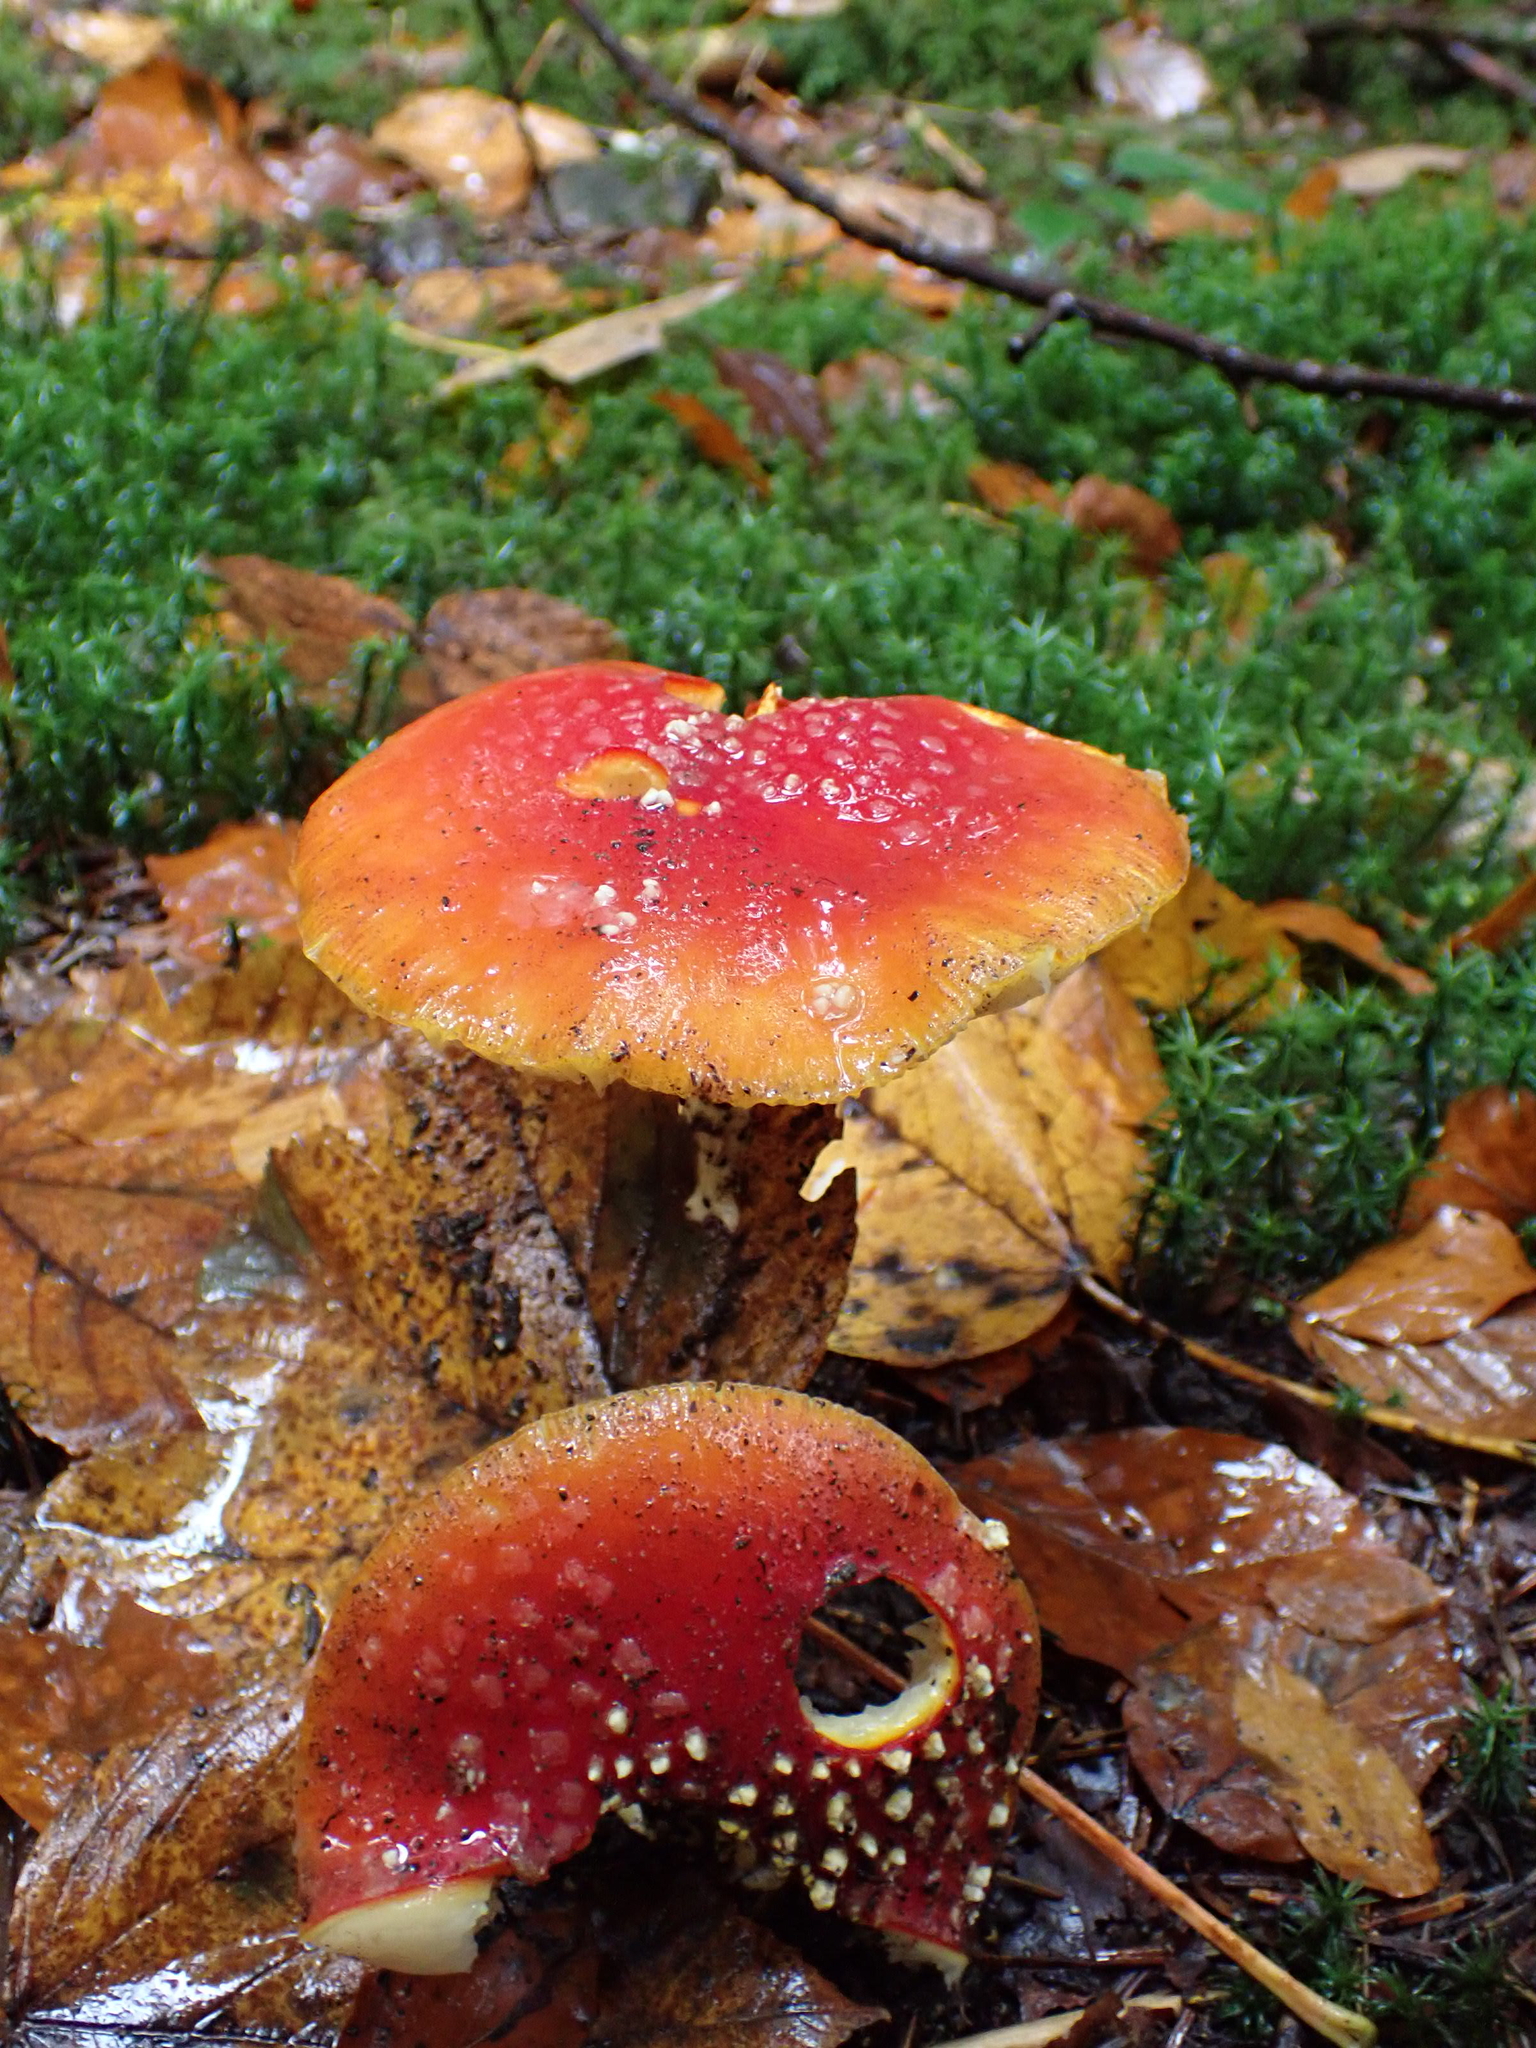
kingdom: Fungi
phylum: Basidiomycota
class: Agaricomycetes
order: Agaricales
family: Amanitaceae
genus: Amanita
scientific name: Amanita muscaria
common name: Fly agaric
